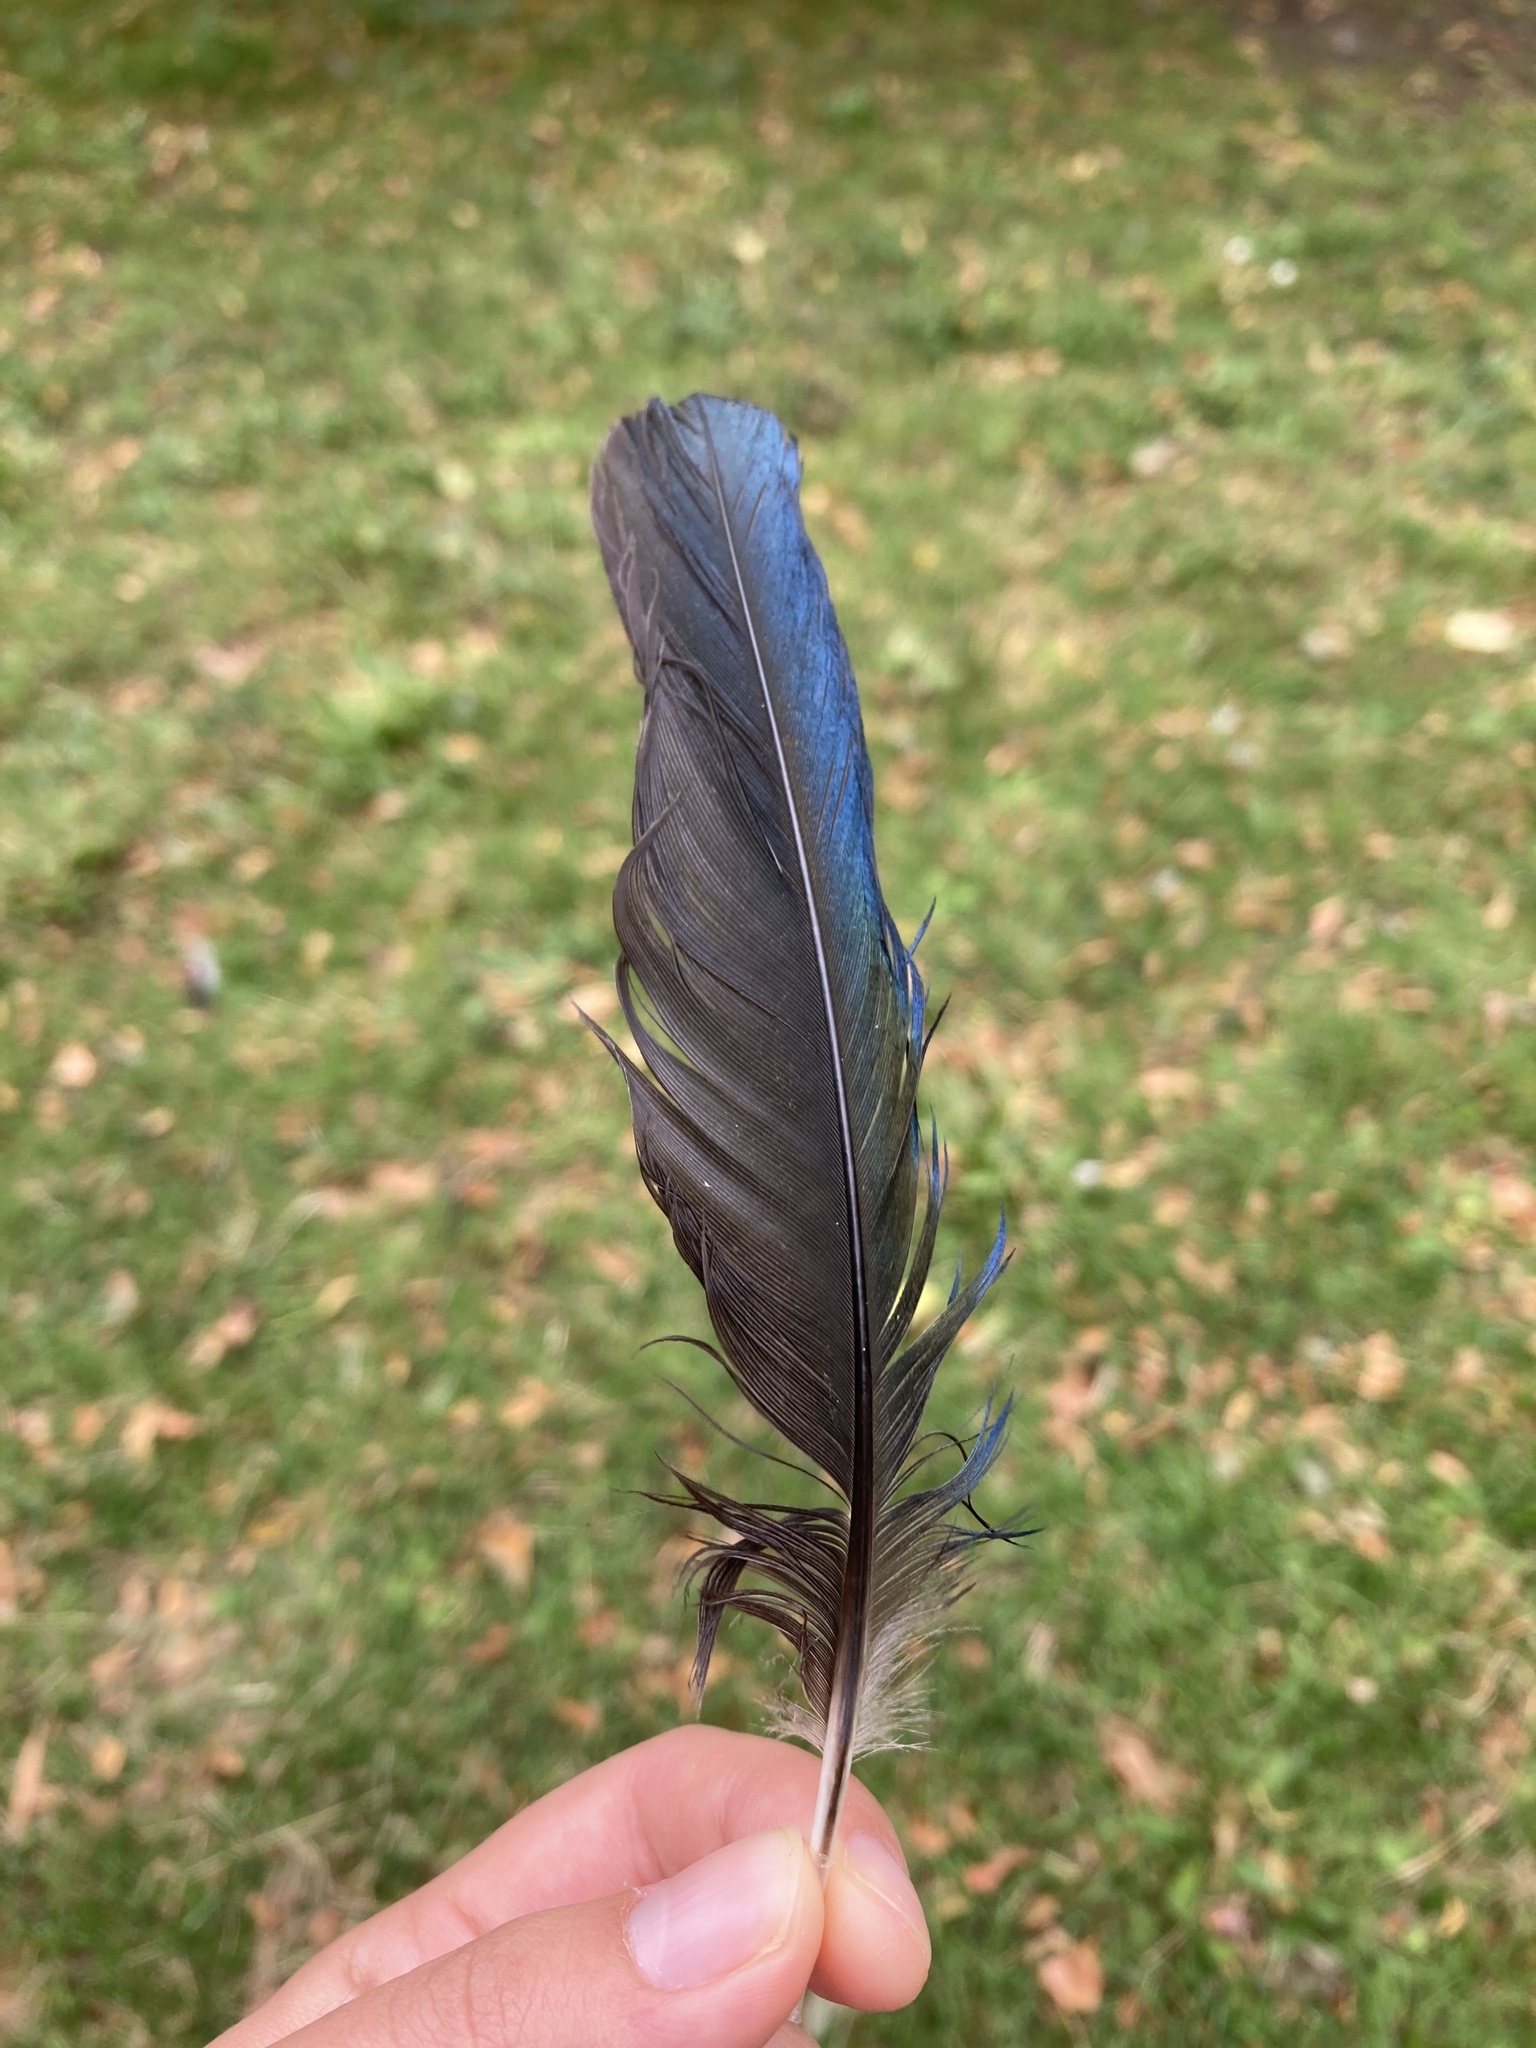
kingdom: Animalia
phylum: Chordata
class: Aves
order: Passeriformes
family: Corvidae
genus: Pica
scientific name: Pica pica
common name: Eurasian magpie
